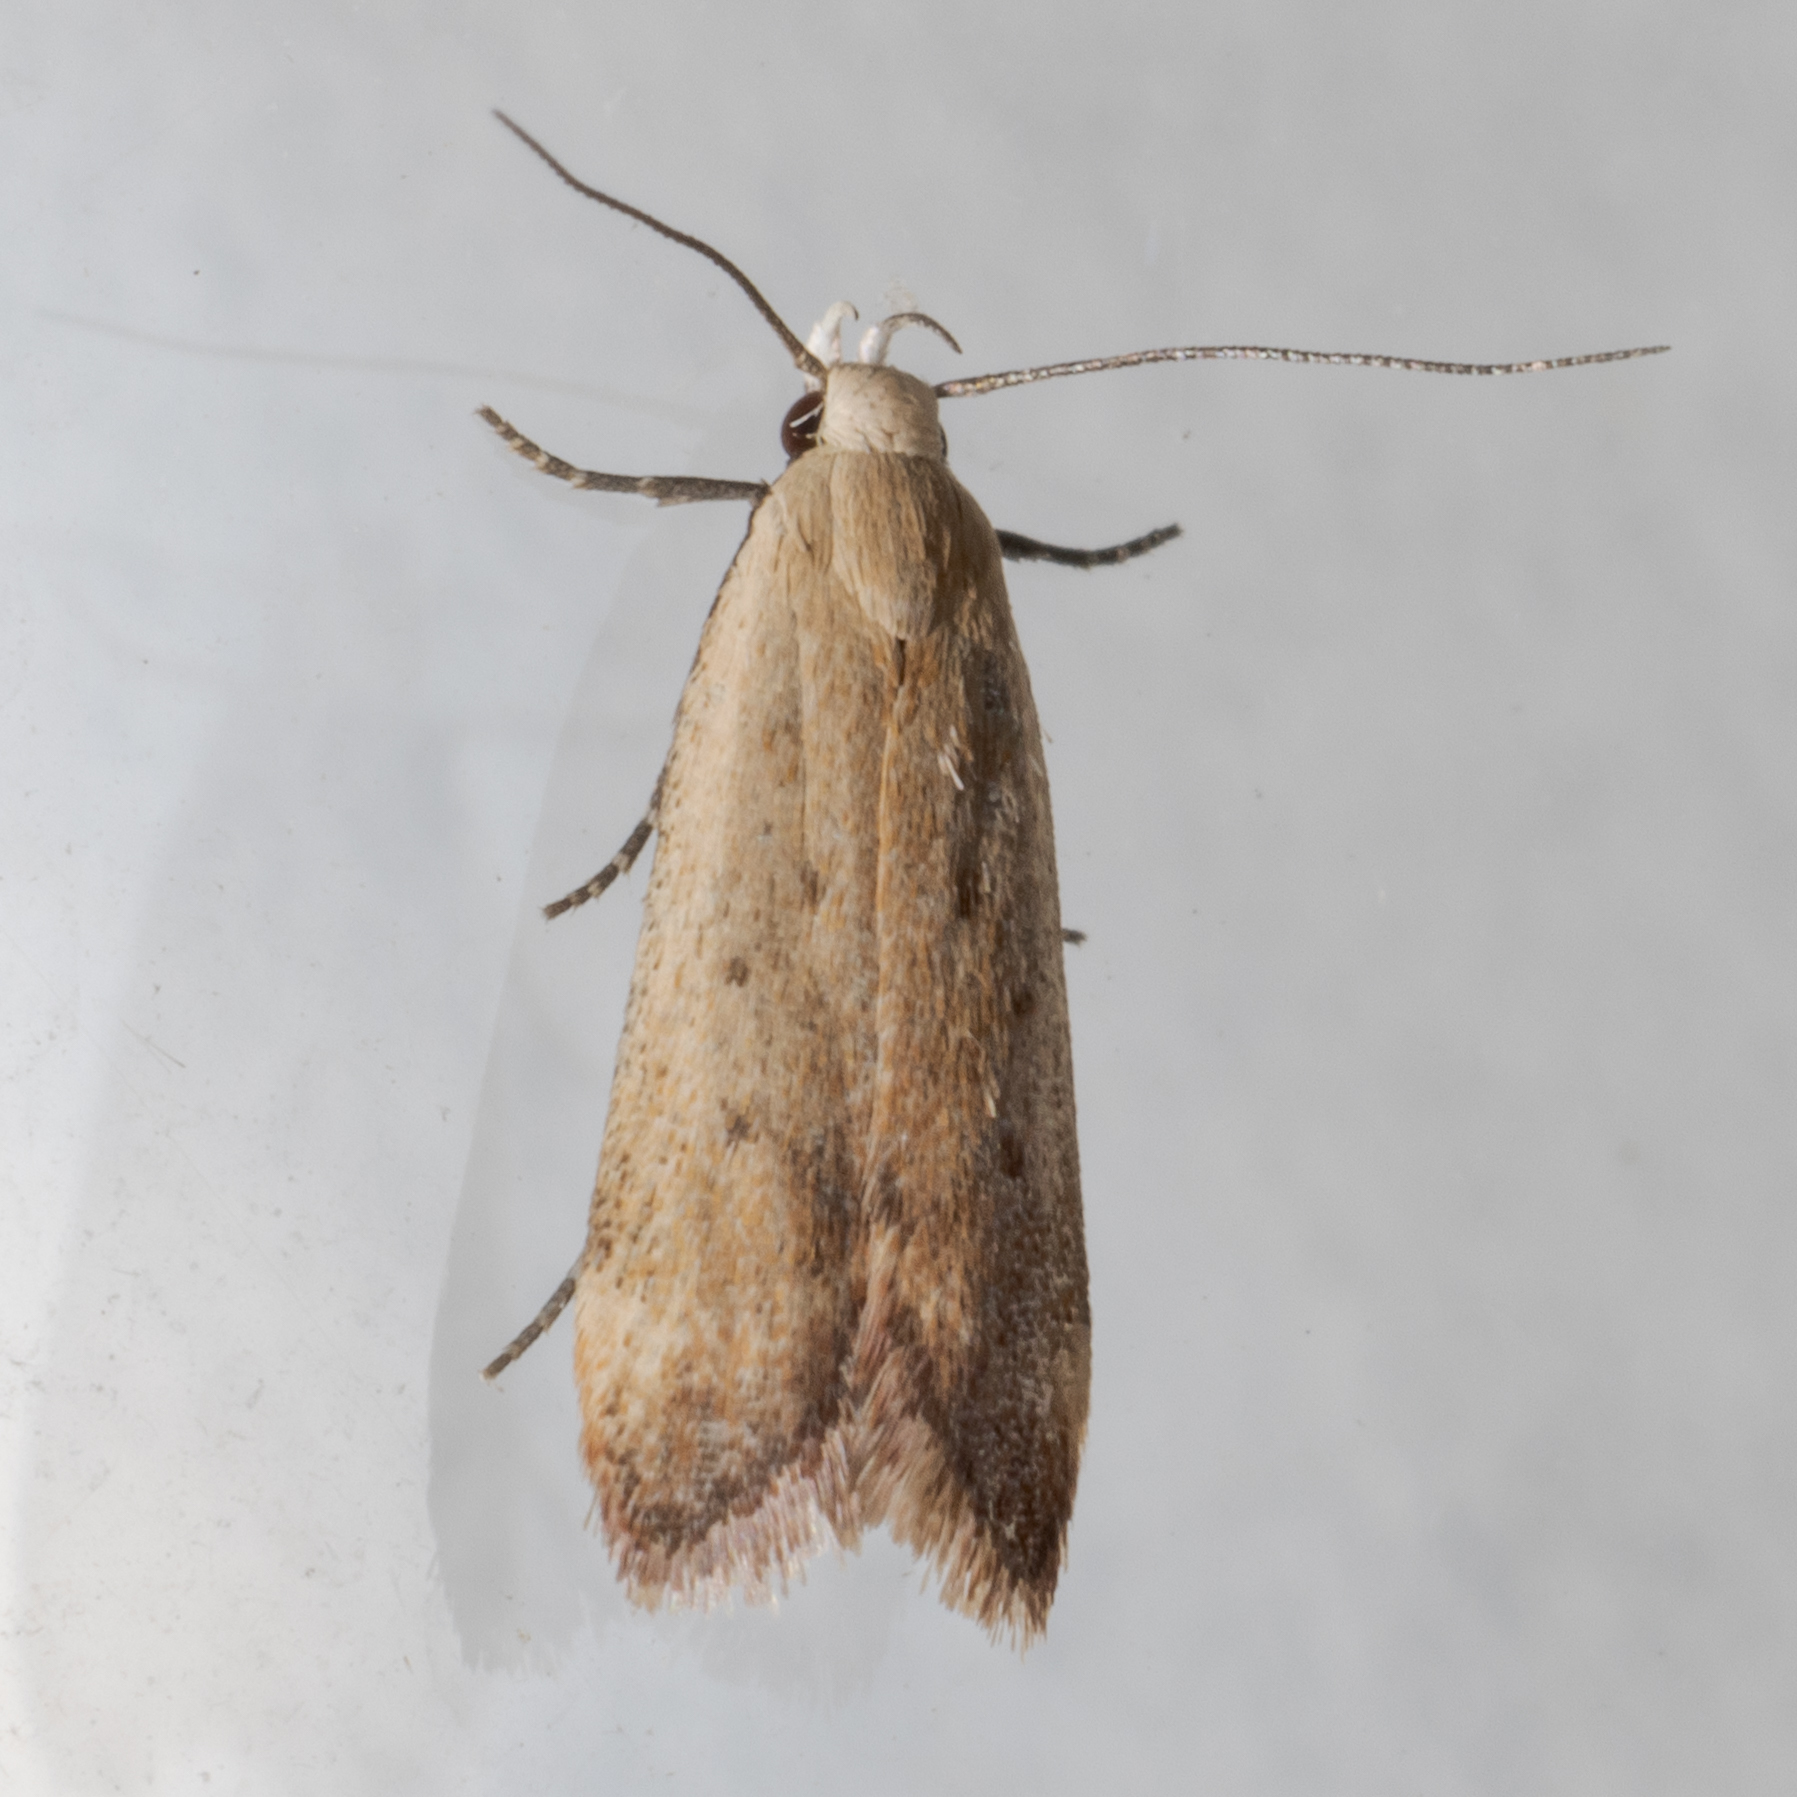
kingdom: Animalia
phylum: Arthropoda
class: Insecta
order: Lepidoptera
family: Gelechiidae
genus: Anacampsis
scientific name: Anacampsis fullonella
